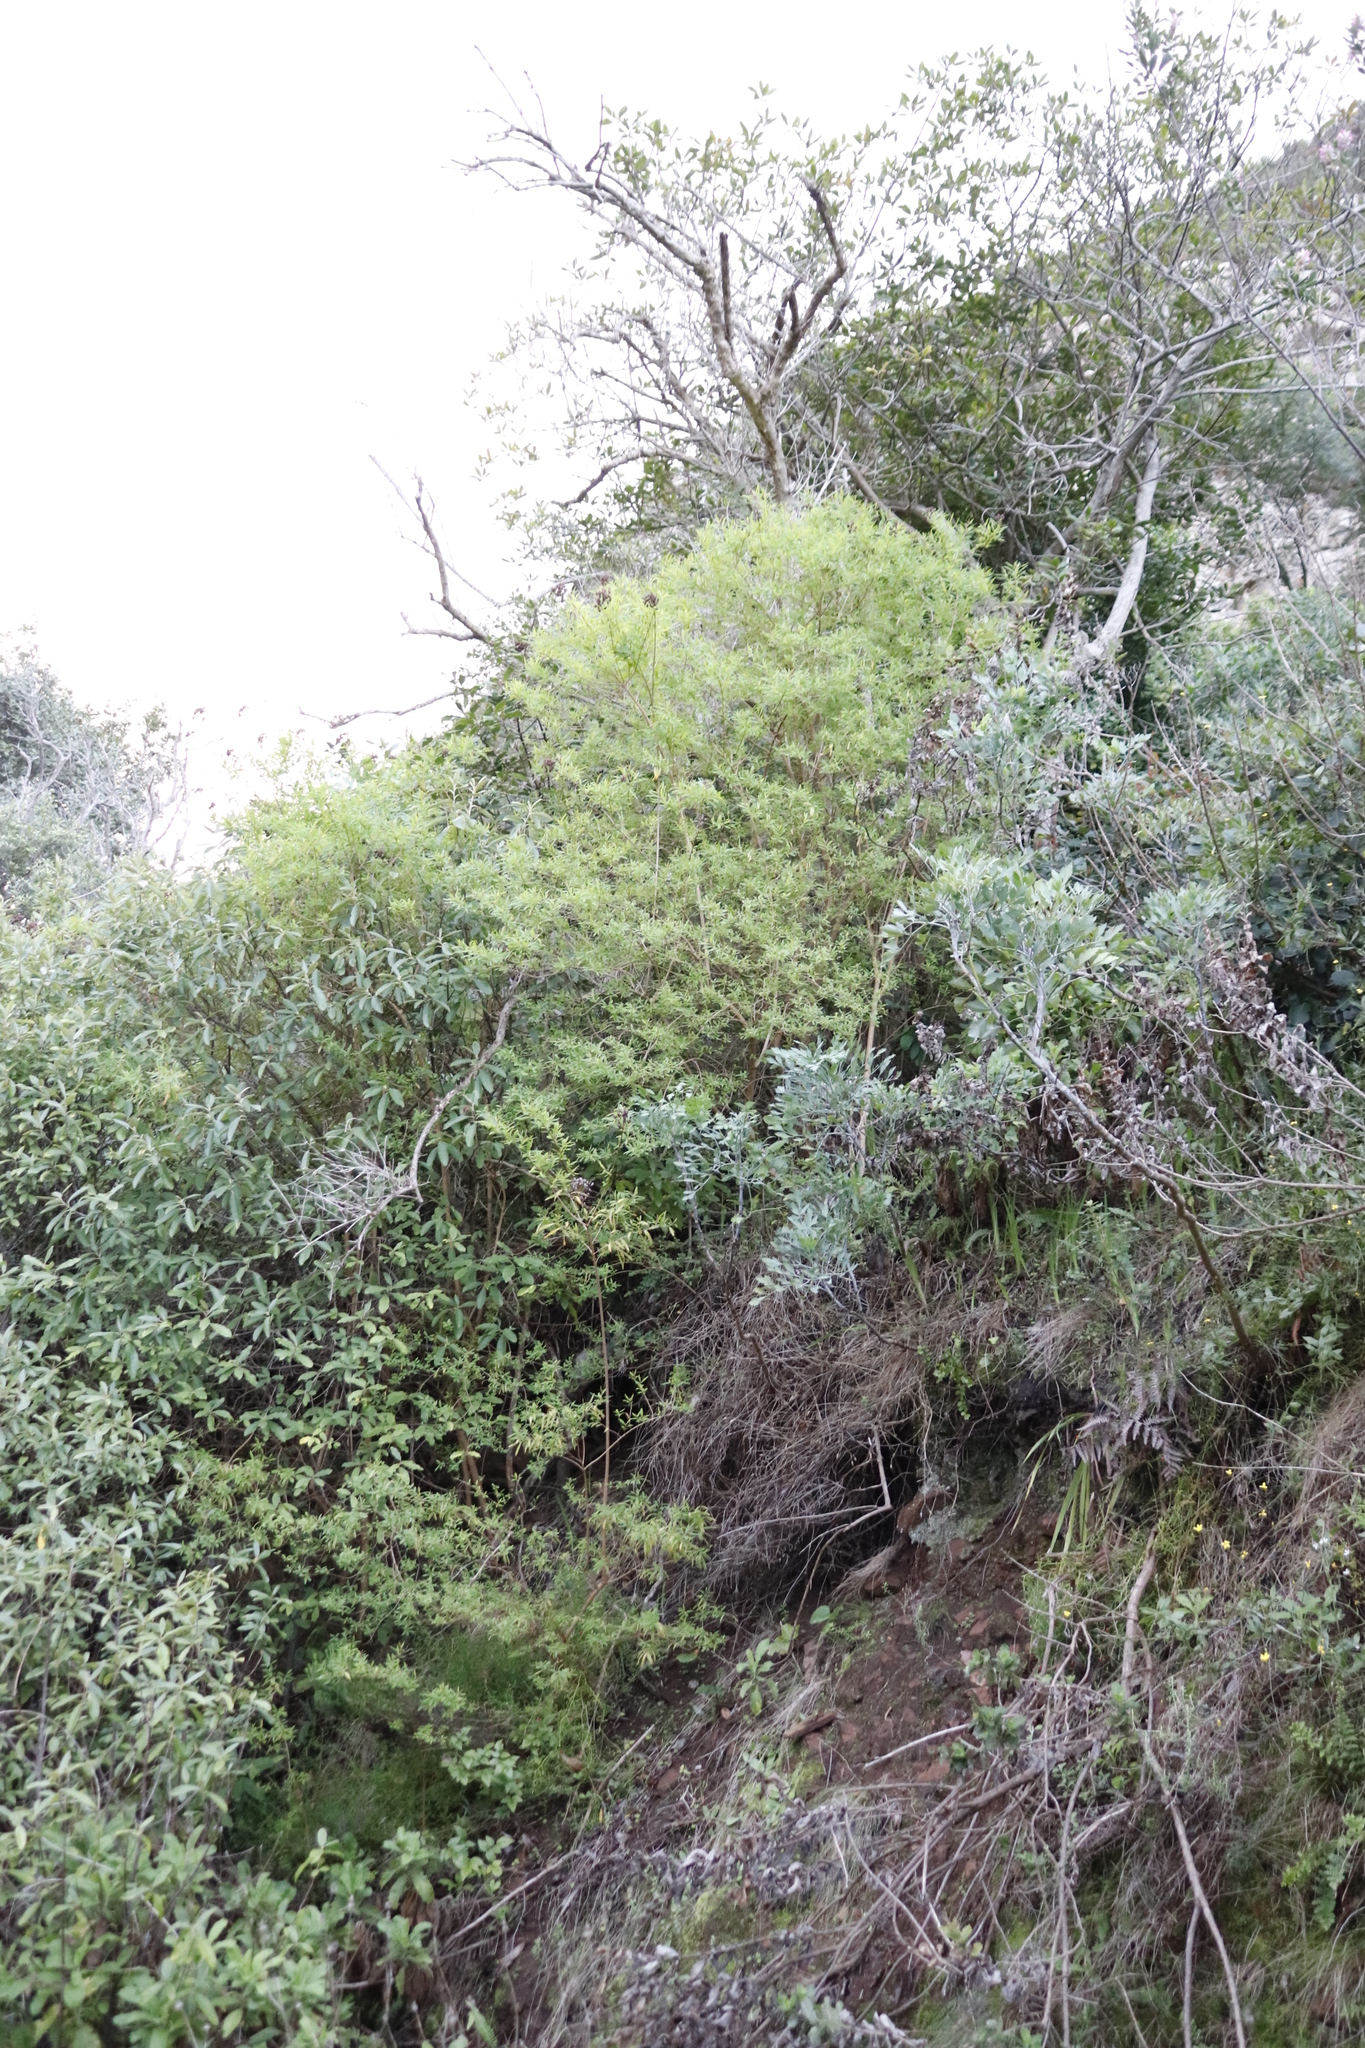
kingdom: Plantae
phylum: Tracheophyta
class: Magnoliopsida
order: Malpighiales
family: Hypericaceae
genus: Hypericum
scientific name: Hypericum canariense
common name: Canary island st. johnswort
